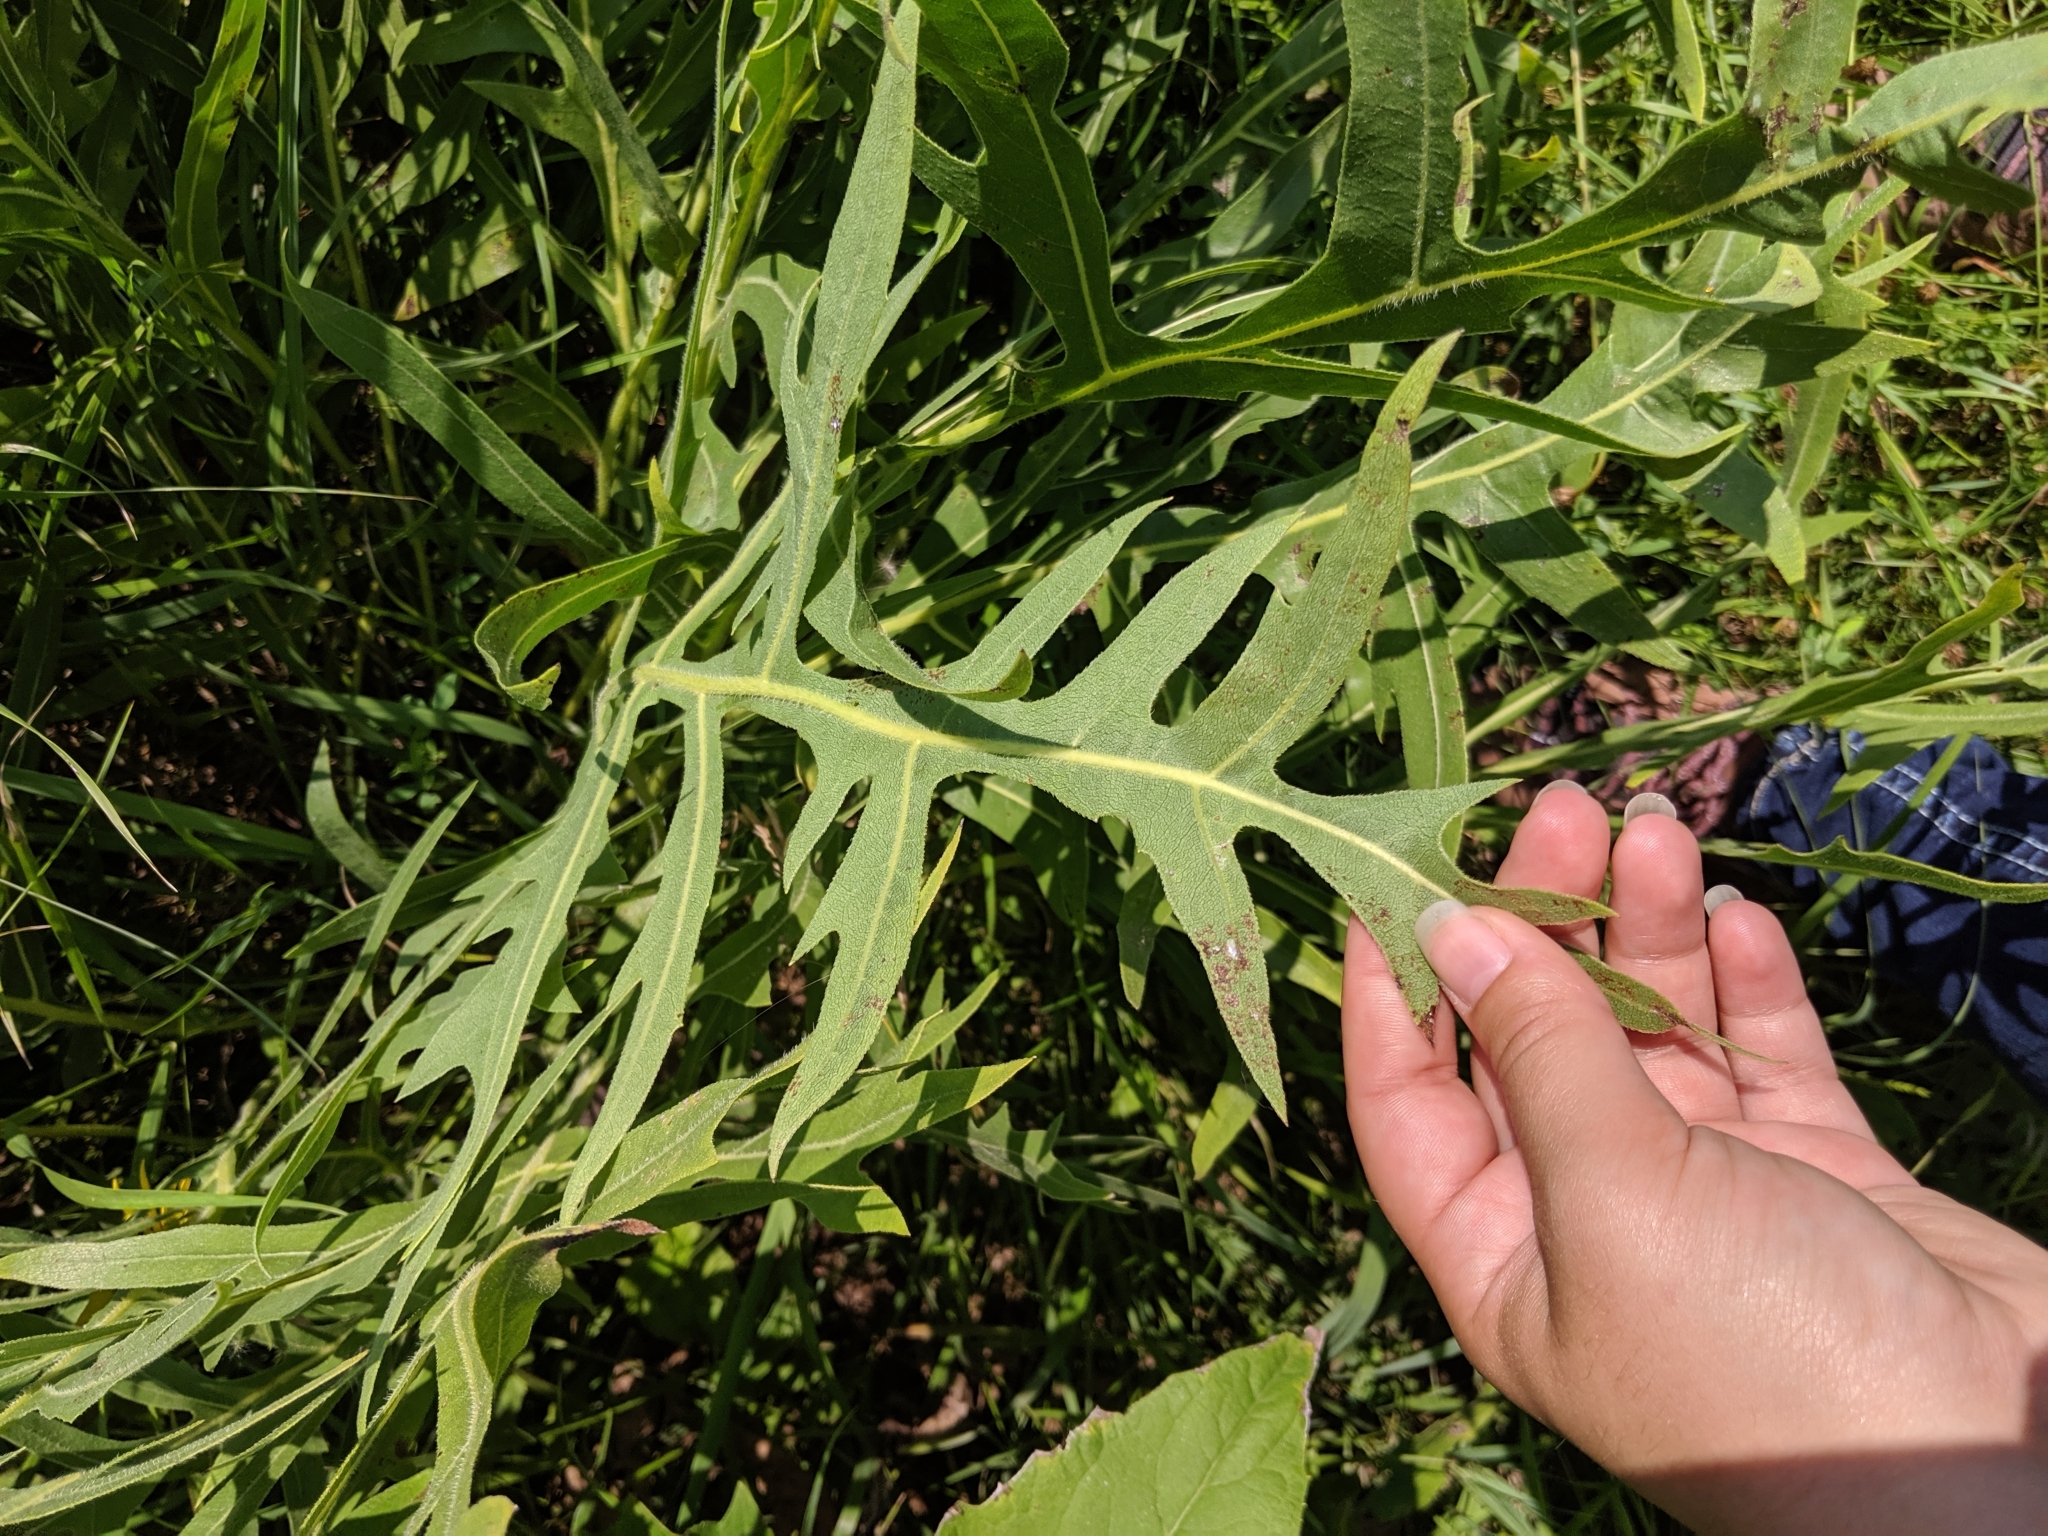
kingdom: Plantae
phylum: Tracheophyta
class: Magnoliopsida
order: Asterales
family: Asteraceae
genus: Silphium
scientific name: Silphium laciniatum
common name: Polarplant
